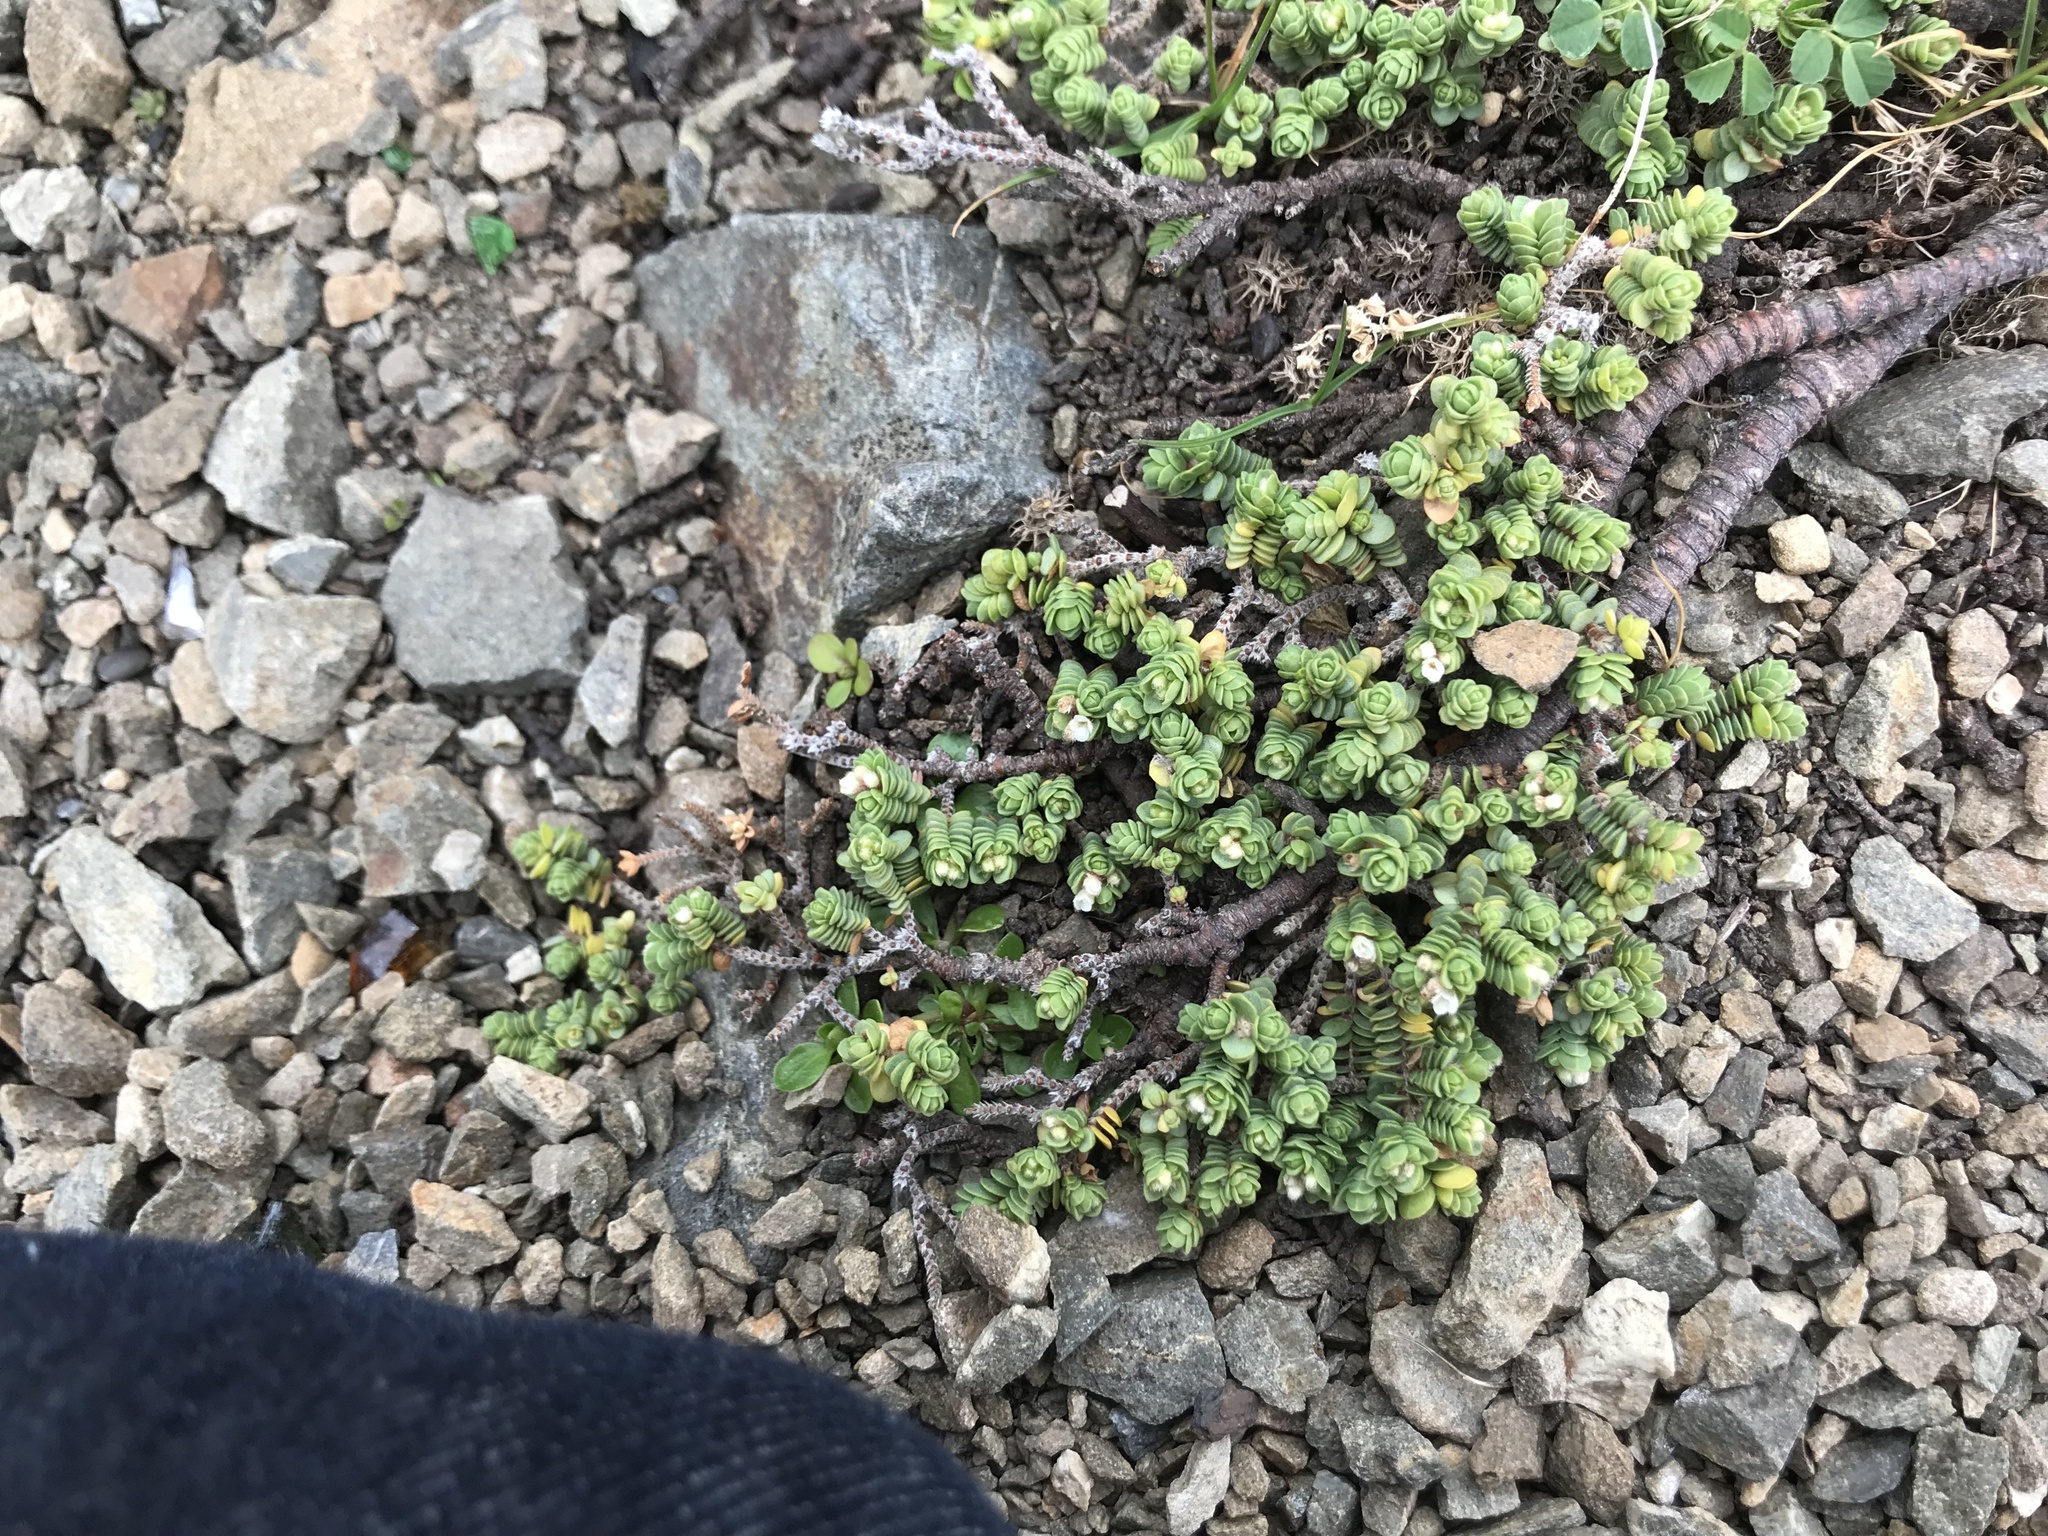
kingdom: Plantae
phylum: Tracheophyta
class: Magnoliopsida
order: Malvales
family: Thymelaeaceae
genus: Pimelea
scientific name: Pimelea carnosa
